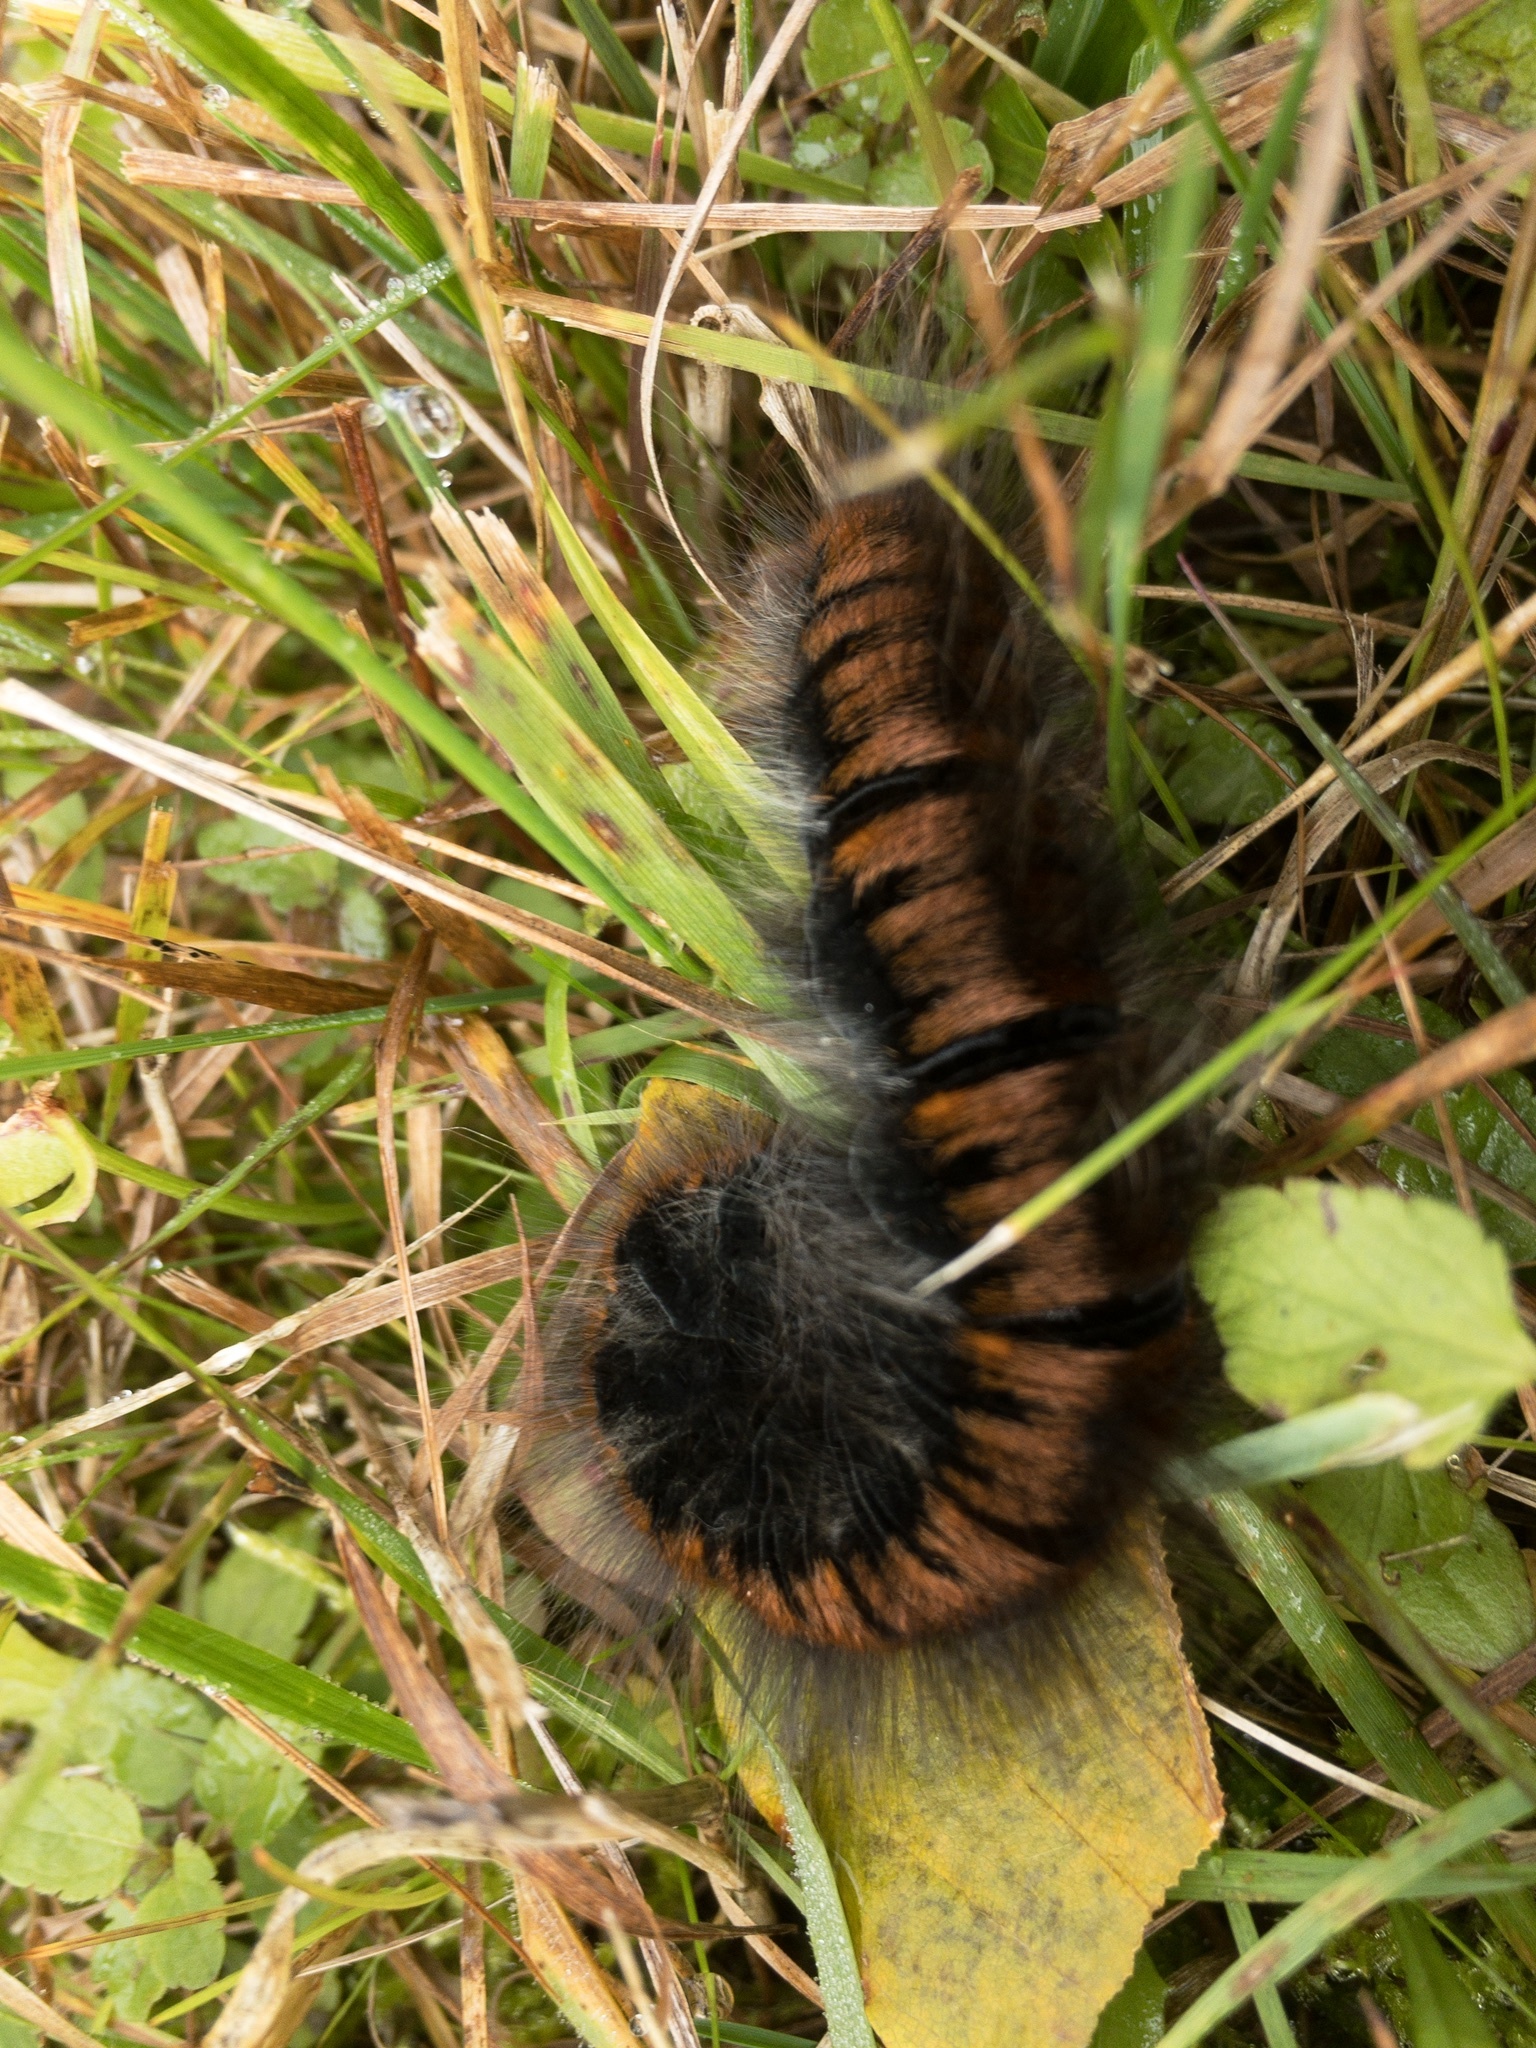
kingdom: Animalia
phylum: Arthropoda
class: Insecta
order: Lepidoptera
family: Lasiocampidae
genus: Macrothylacia
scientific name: Macrothylacia rubi
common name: Fox moth
